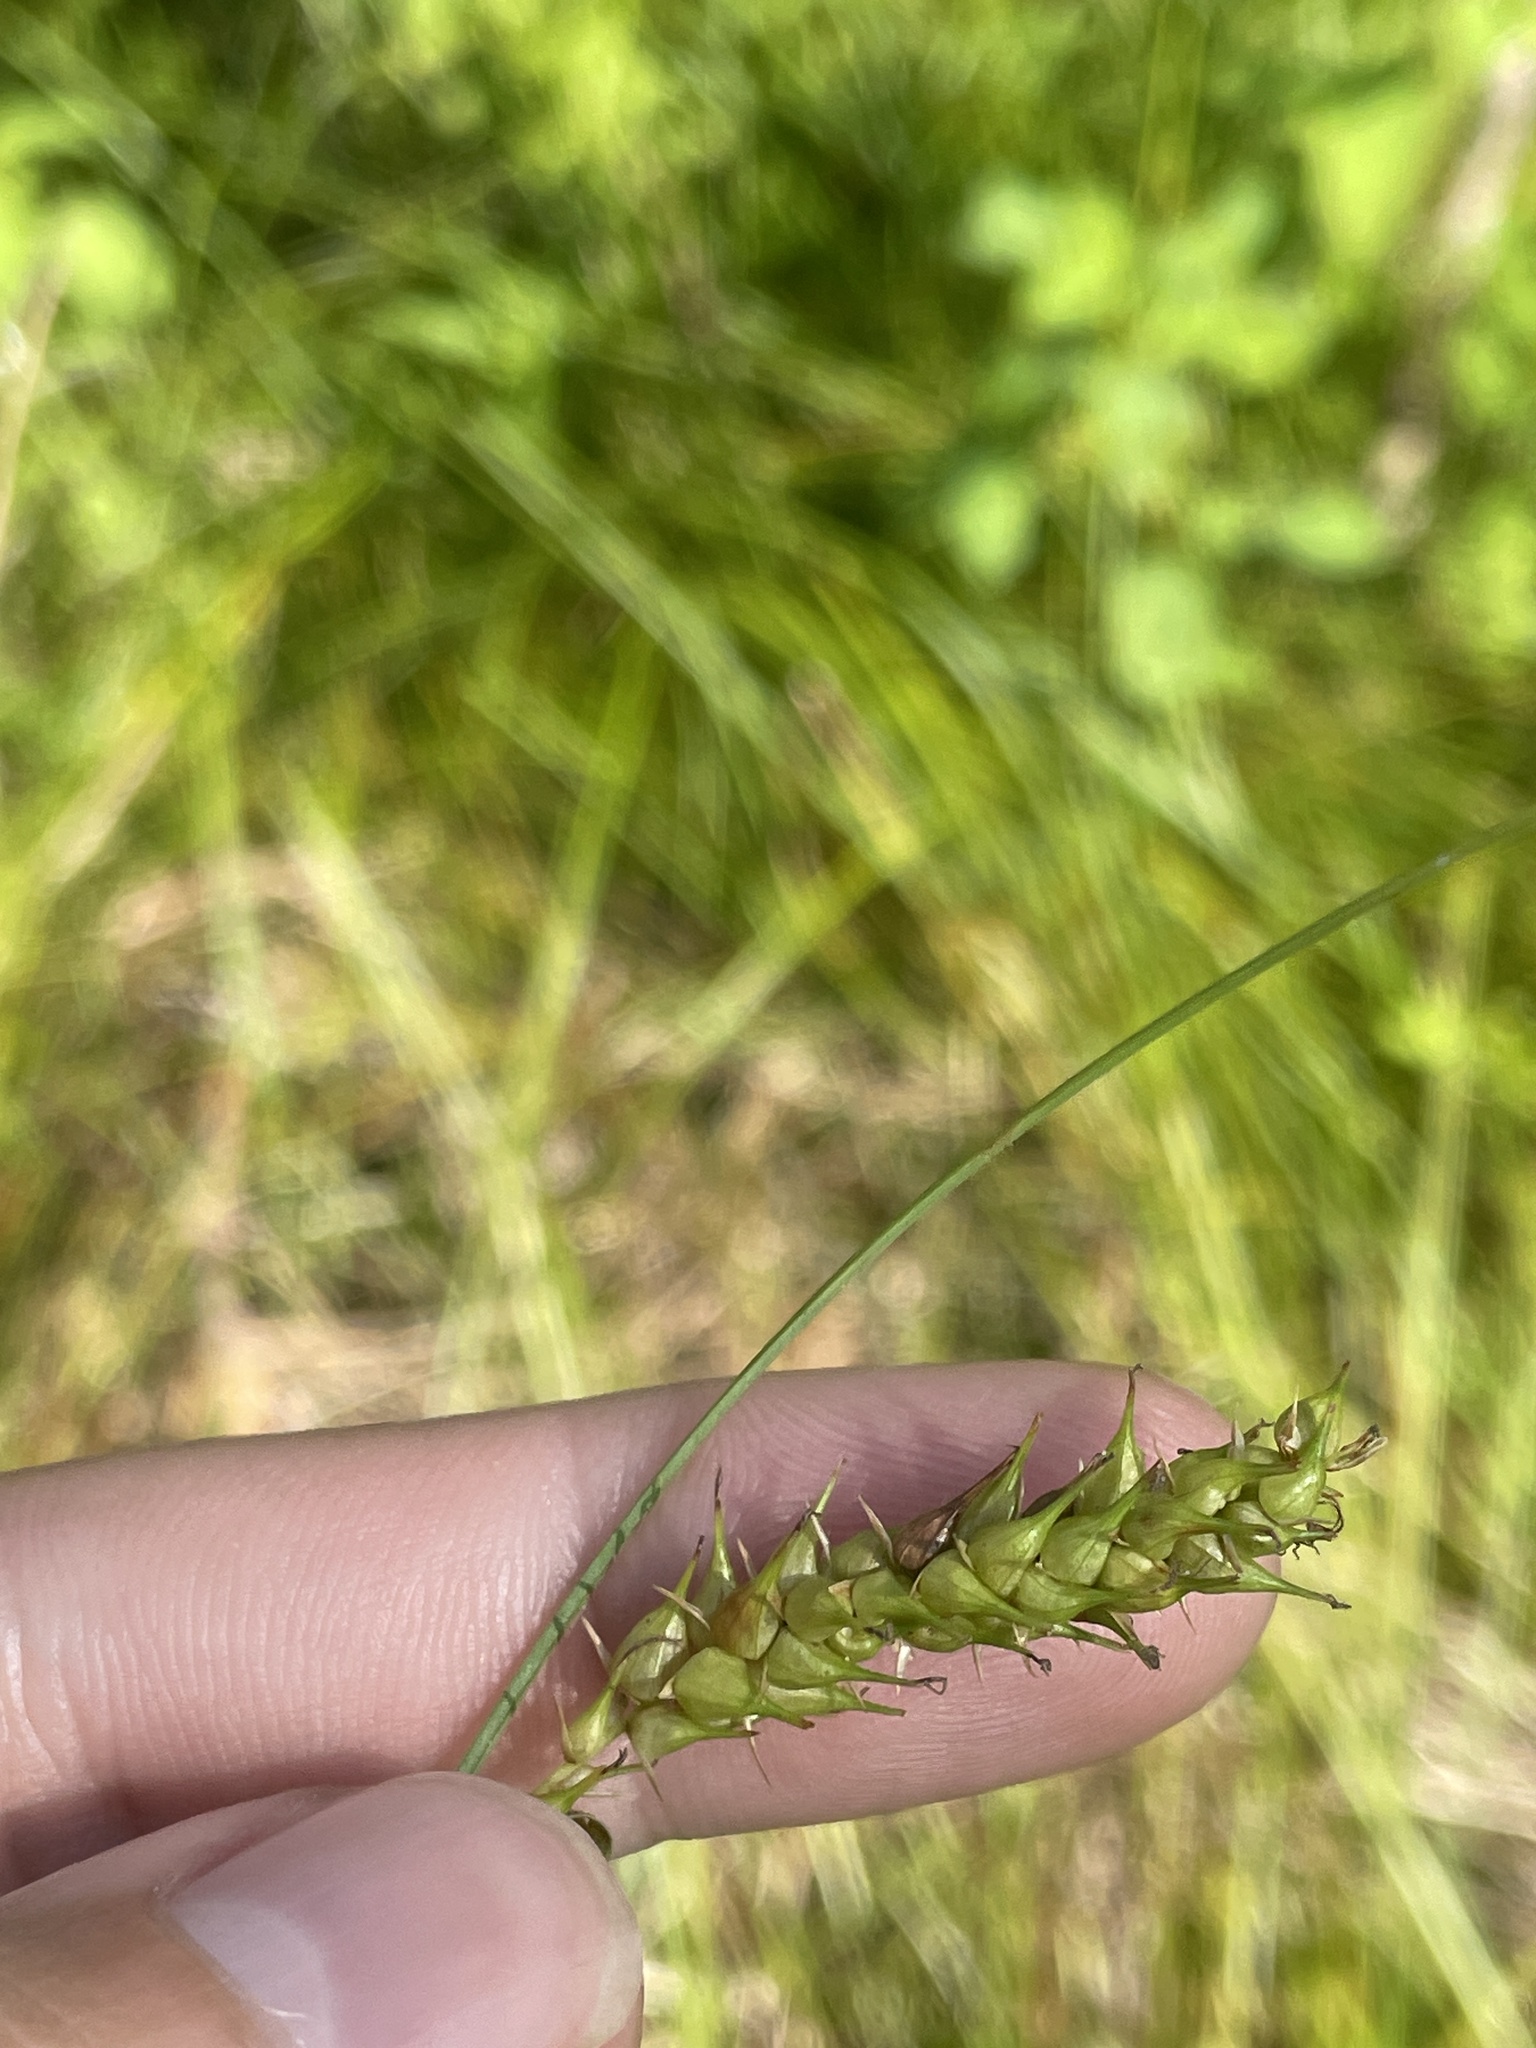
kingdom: Plantae
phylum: Tracheophyta
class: Liliopsida
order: Poales
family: Cyperaceae
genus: Carex
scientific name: Carex vesicaria
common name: Bladder-sedge
